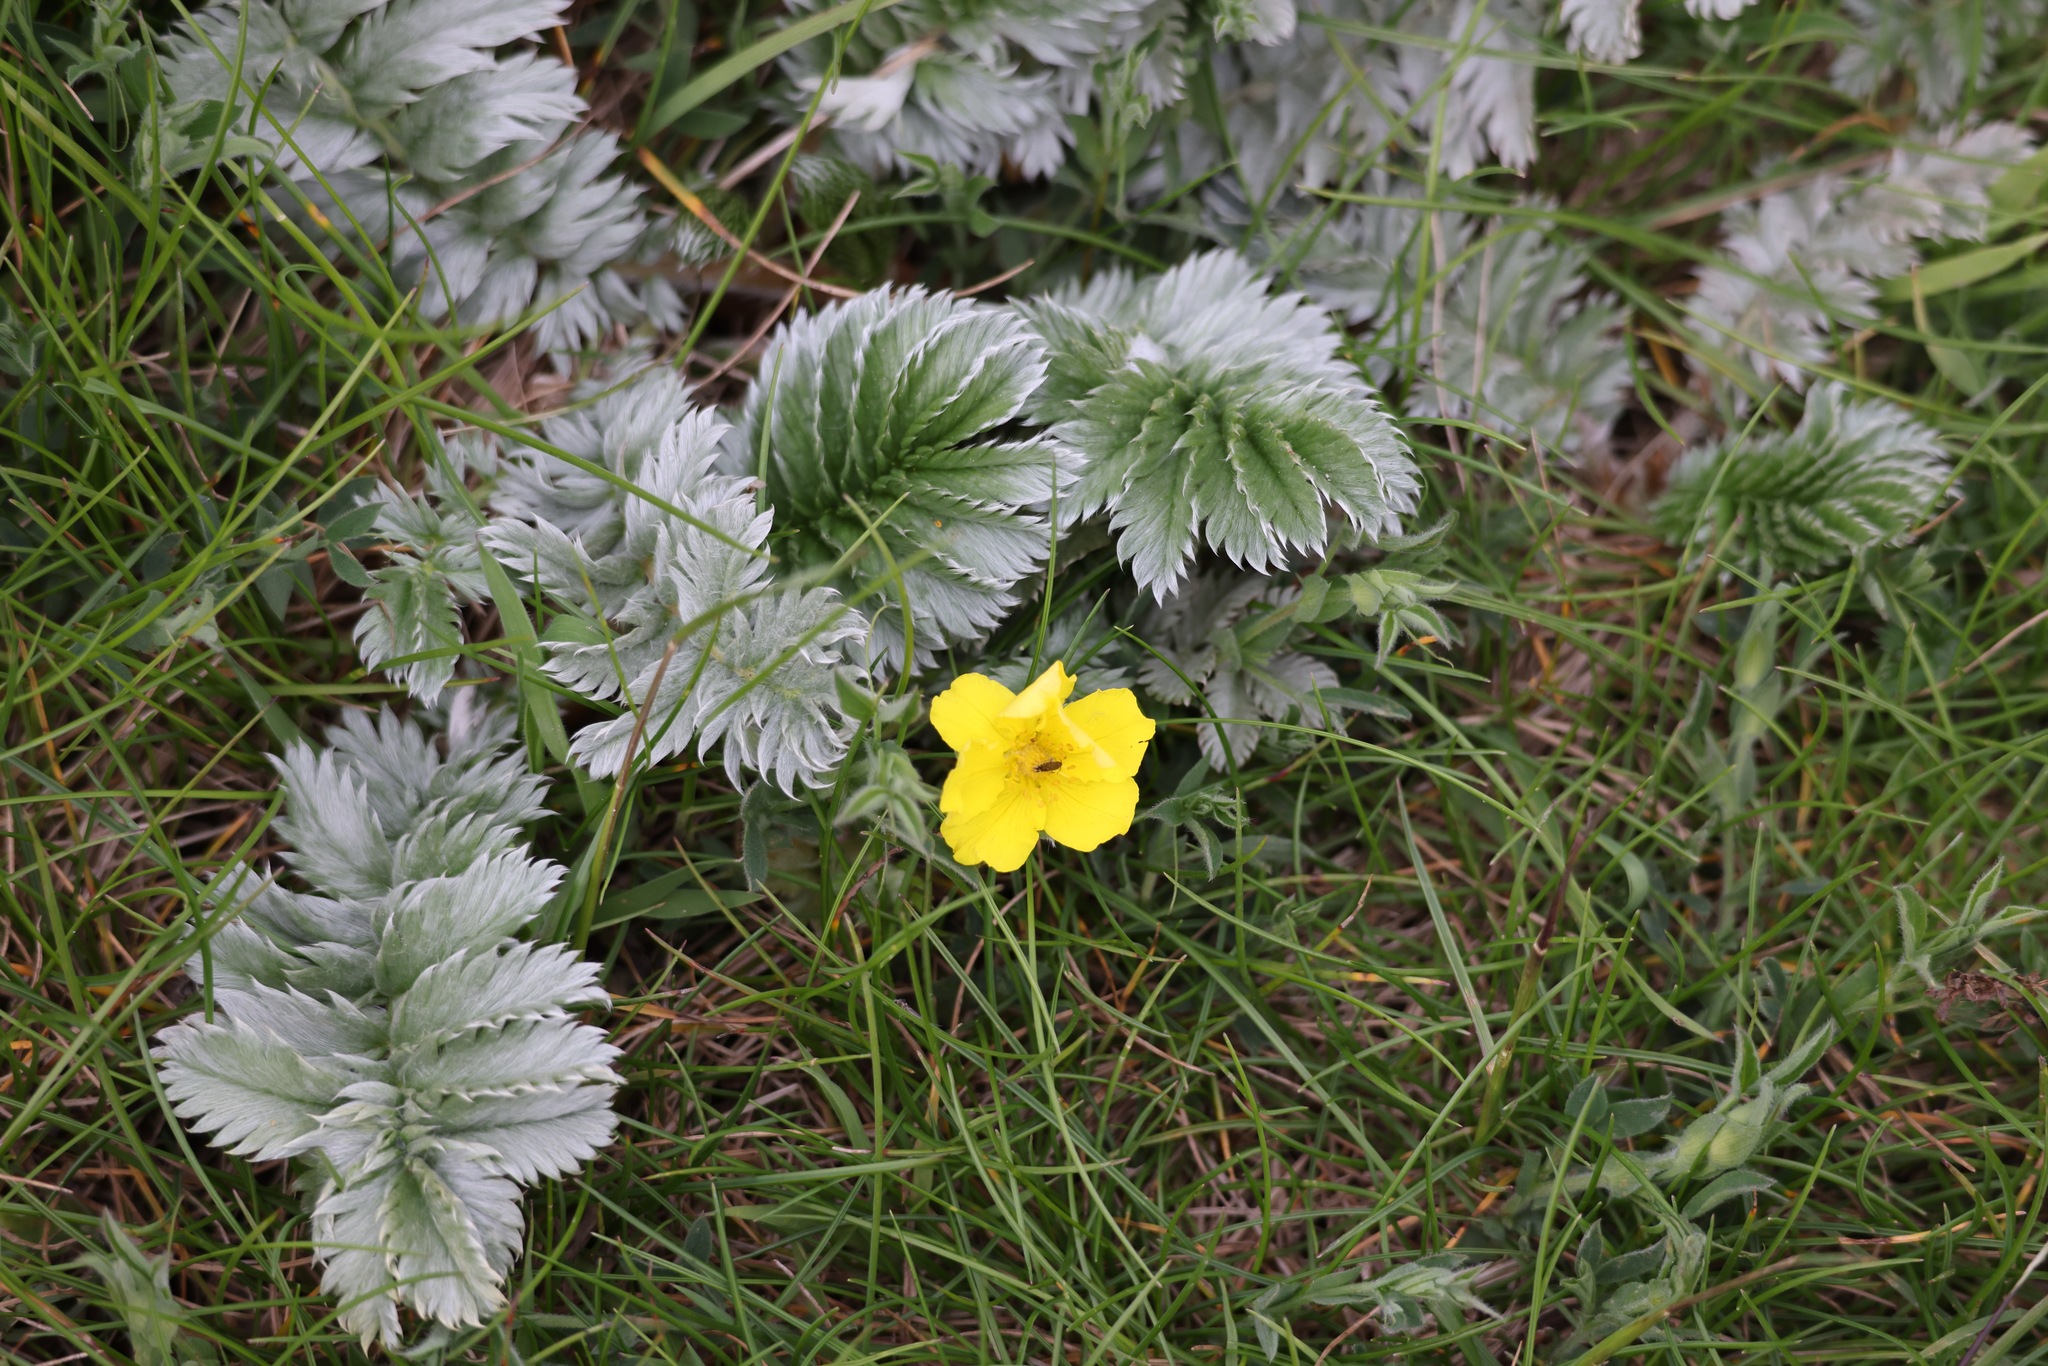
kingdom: Plantae
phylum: Tracheophyta
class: Magnoliopsida
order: Rosales
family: Rosaceae
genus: Argentina
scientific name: Argentina anserina
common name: Common silverweed
